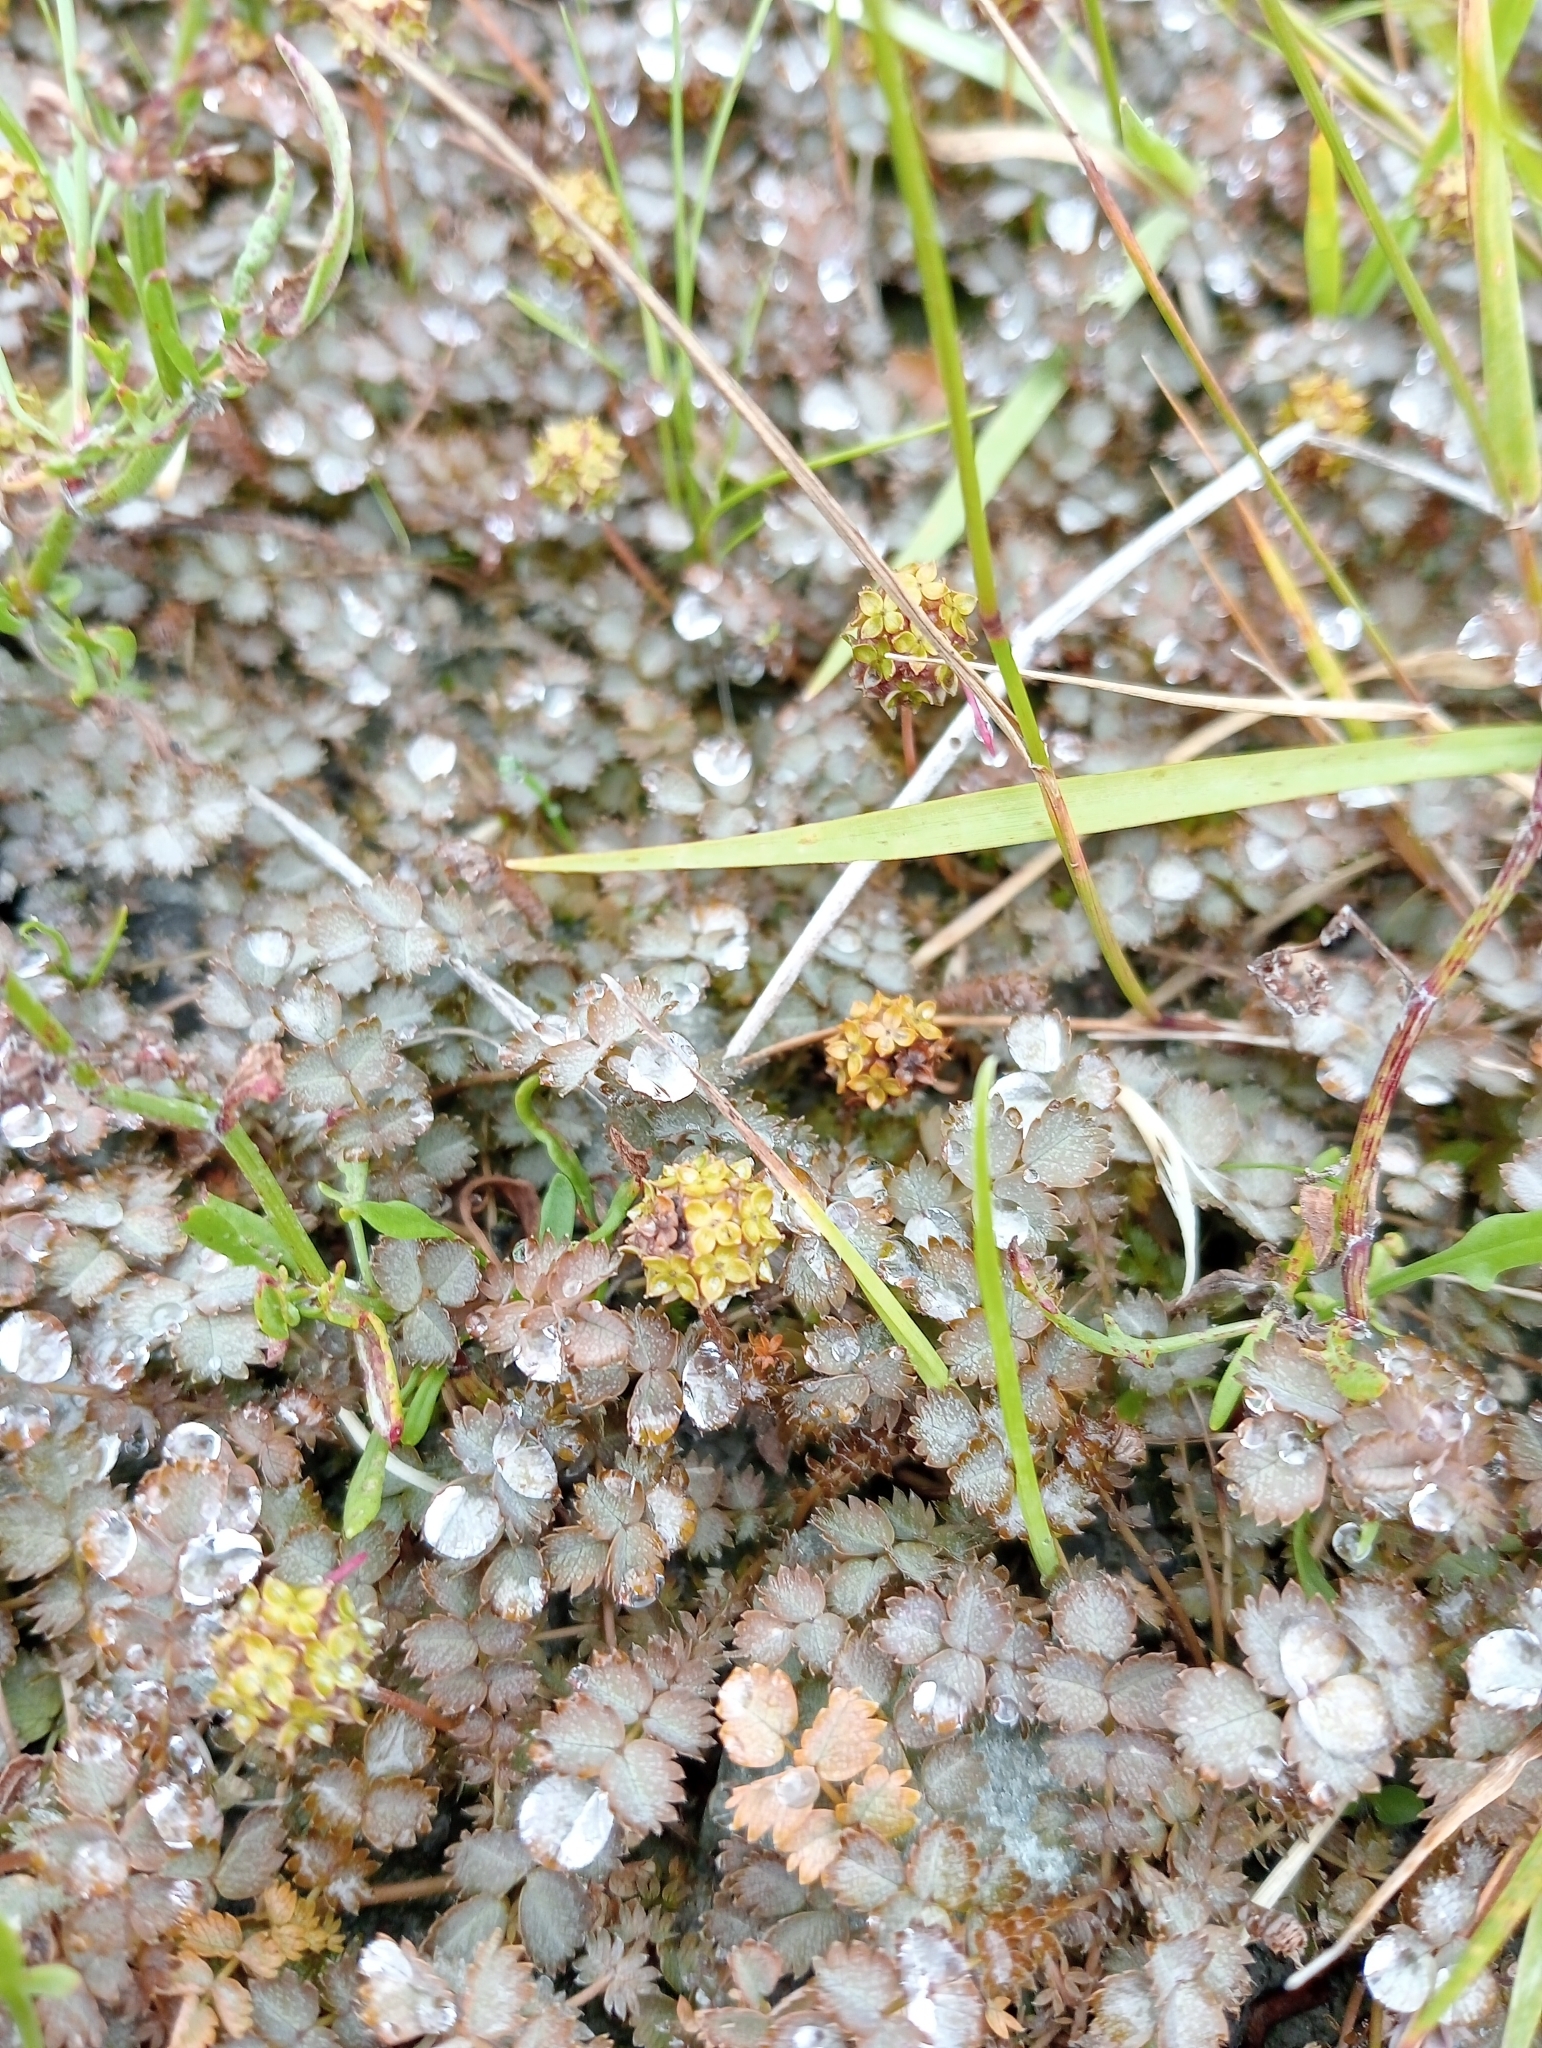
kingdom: Plantae
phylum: Tracheophyta
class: Magnoliopsida
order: Rosales
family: Rosaceae
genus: Acaena
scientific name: Acaena inermis
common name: Spineless acaena
